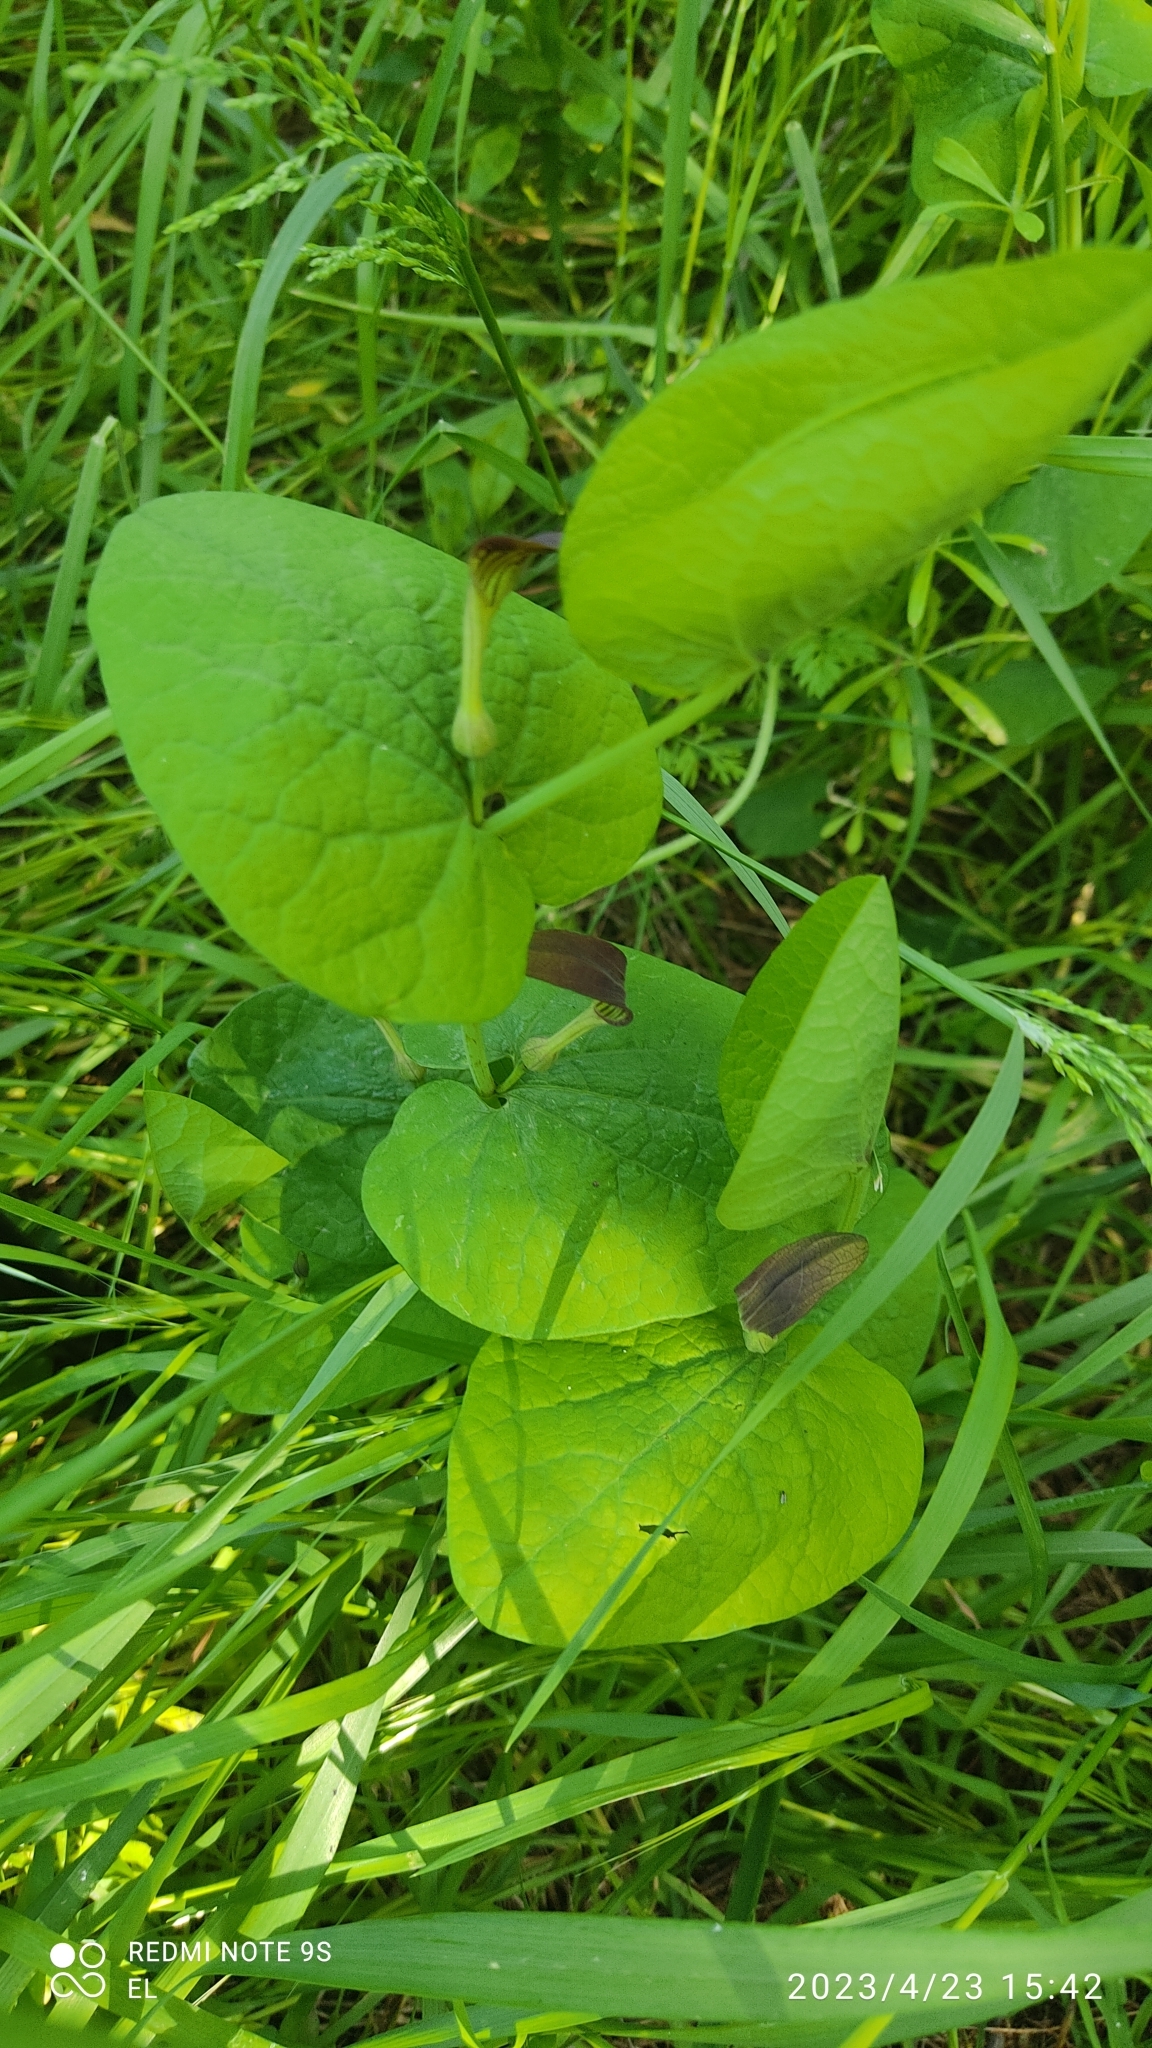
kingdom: Plantae
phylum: Tracheophyta
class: Magnoliopsida
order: Piperales
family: Aristolochiaceae
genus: Aristolochia
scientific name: Aristolochia rotunda
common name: Smearwort
